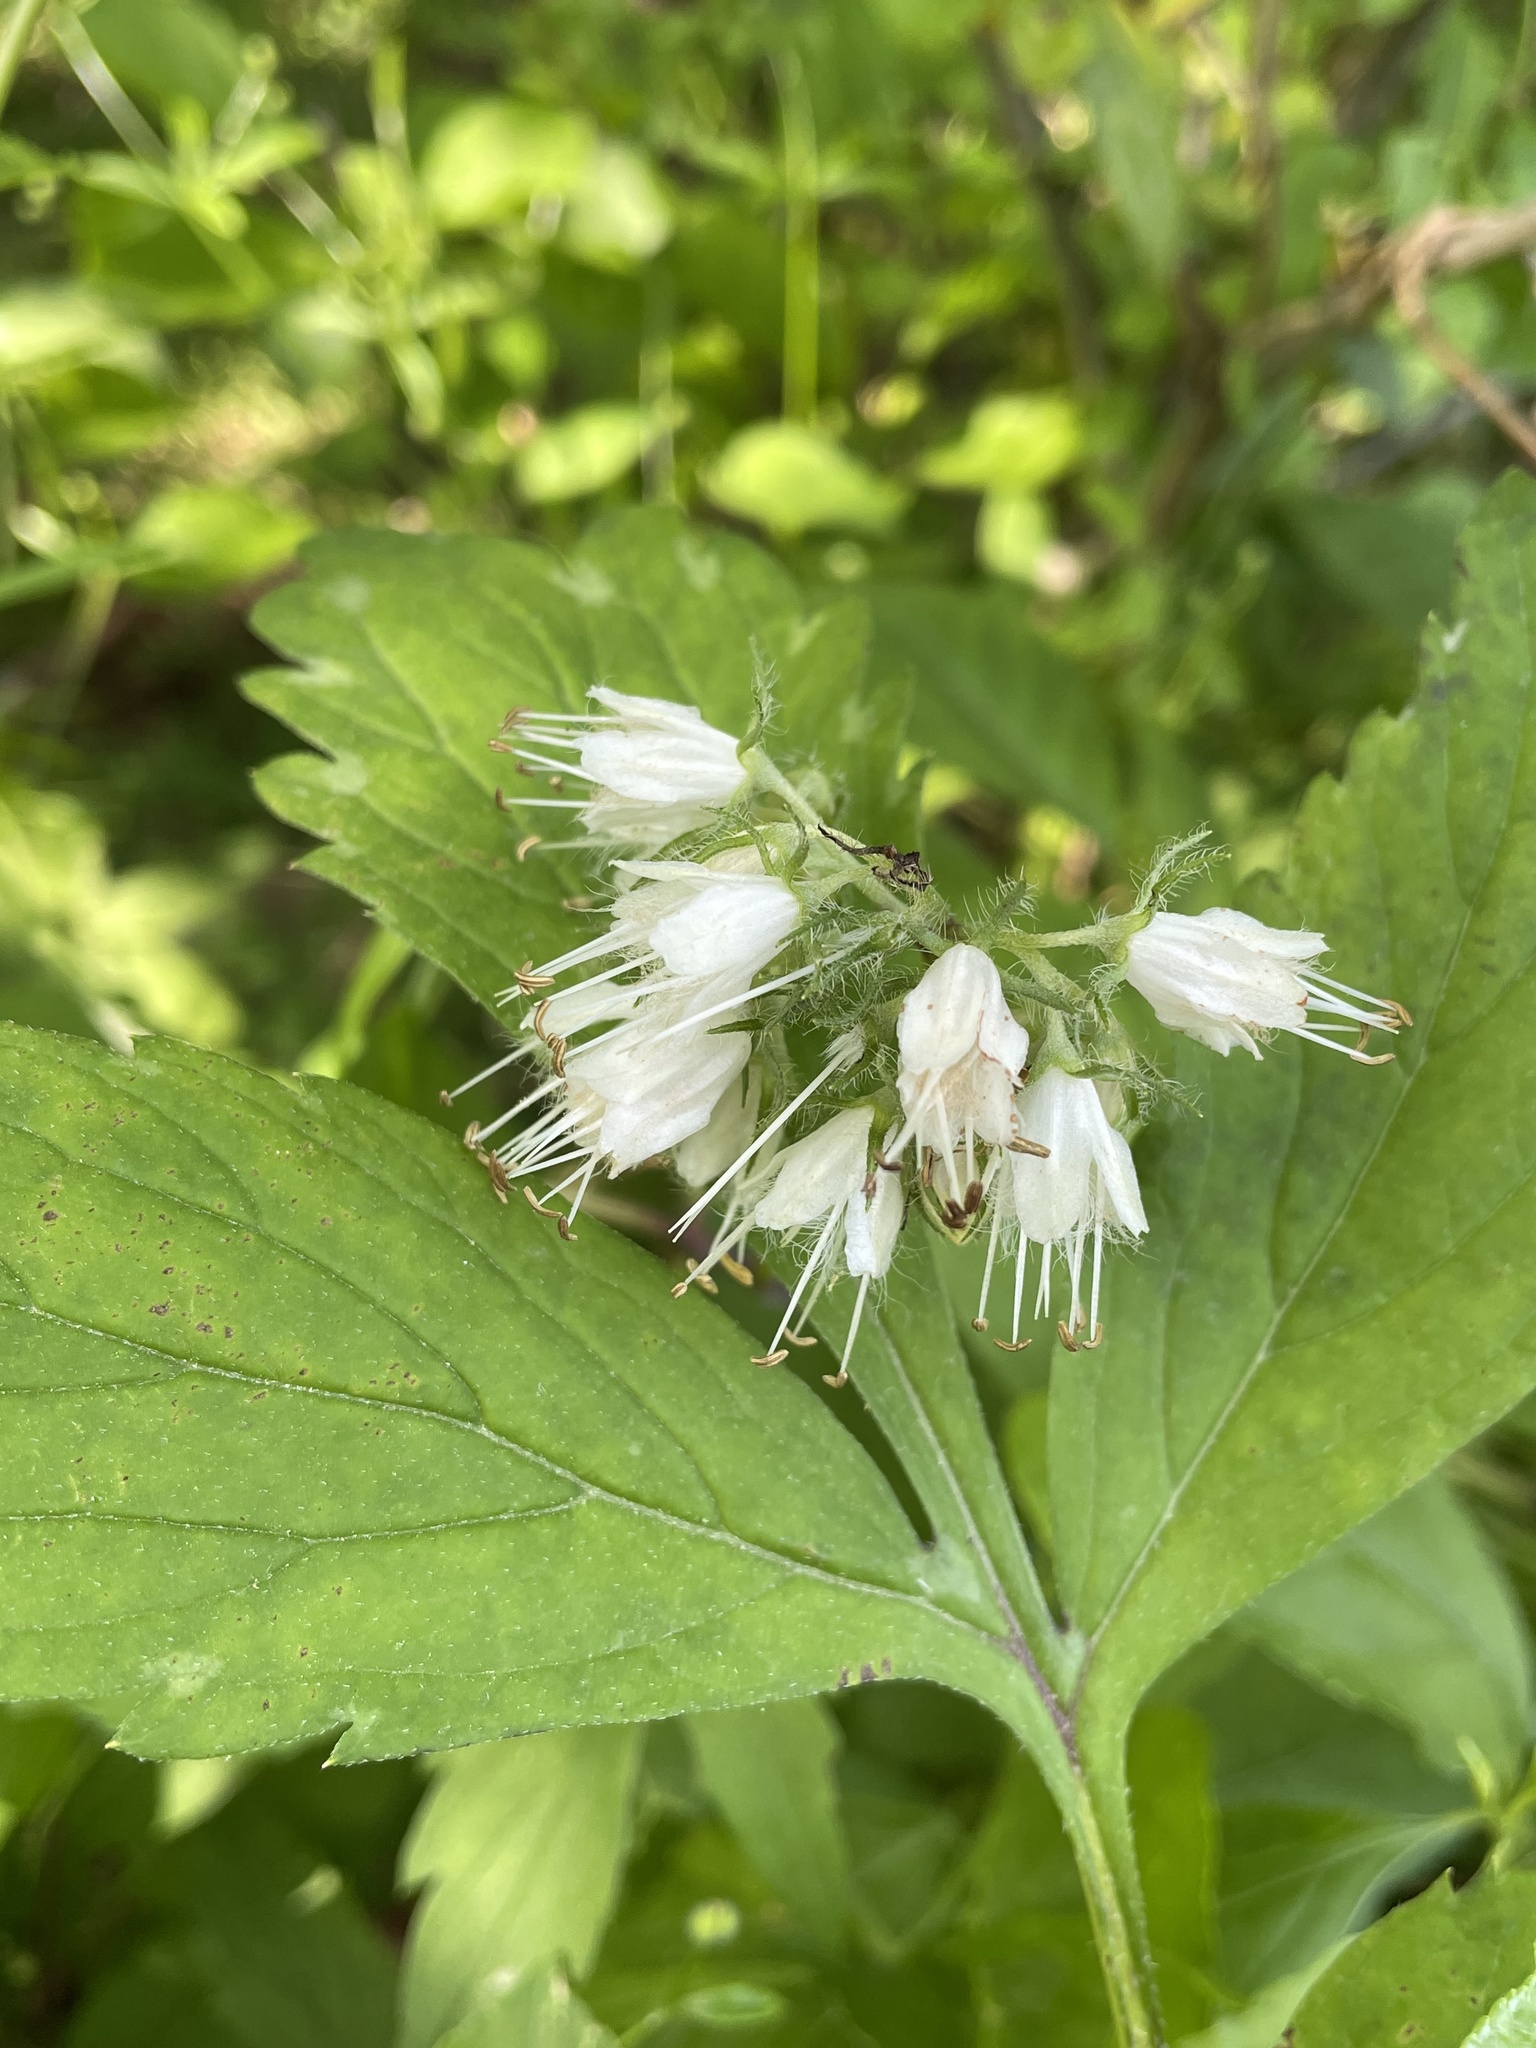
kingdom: Plantae
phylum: Tracheophyta
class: Magnoliopsida
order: Boraginales
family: Hydrophyllaceae
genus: Hydrophyllum
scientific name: Hydrophyllum virginianum
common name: Virginia waterleaf
